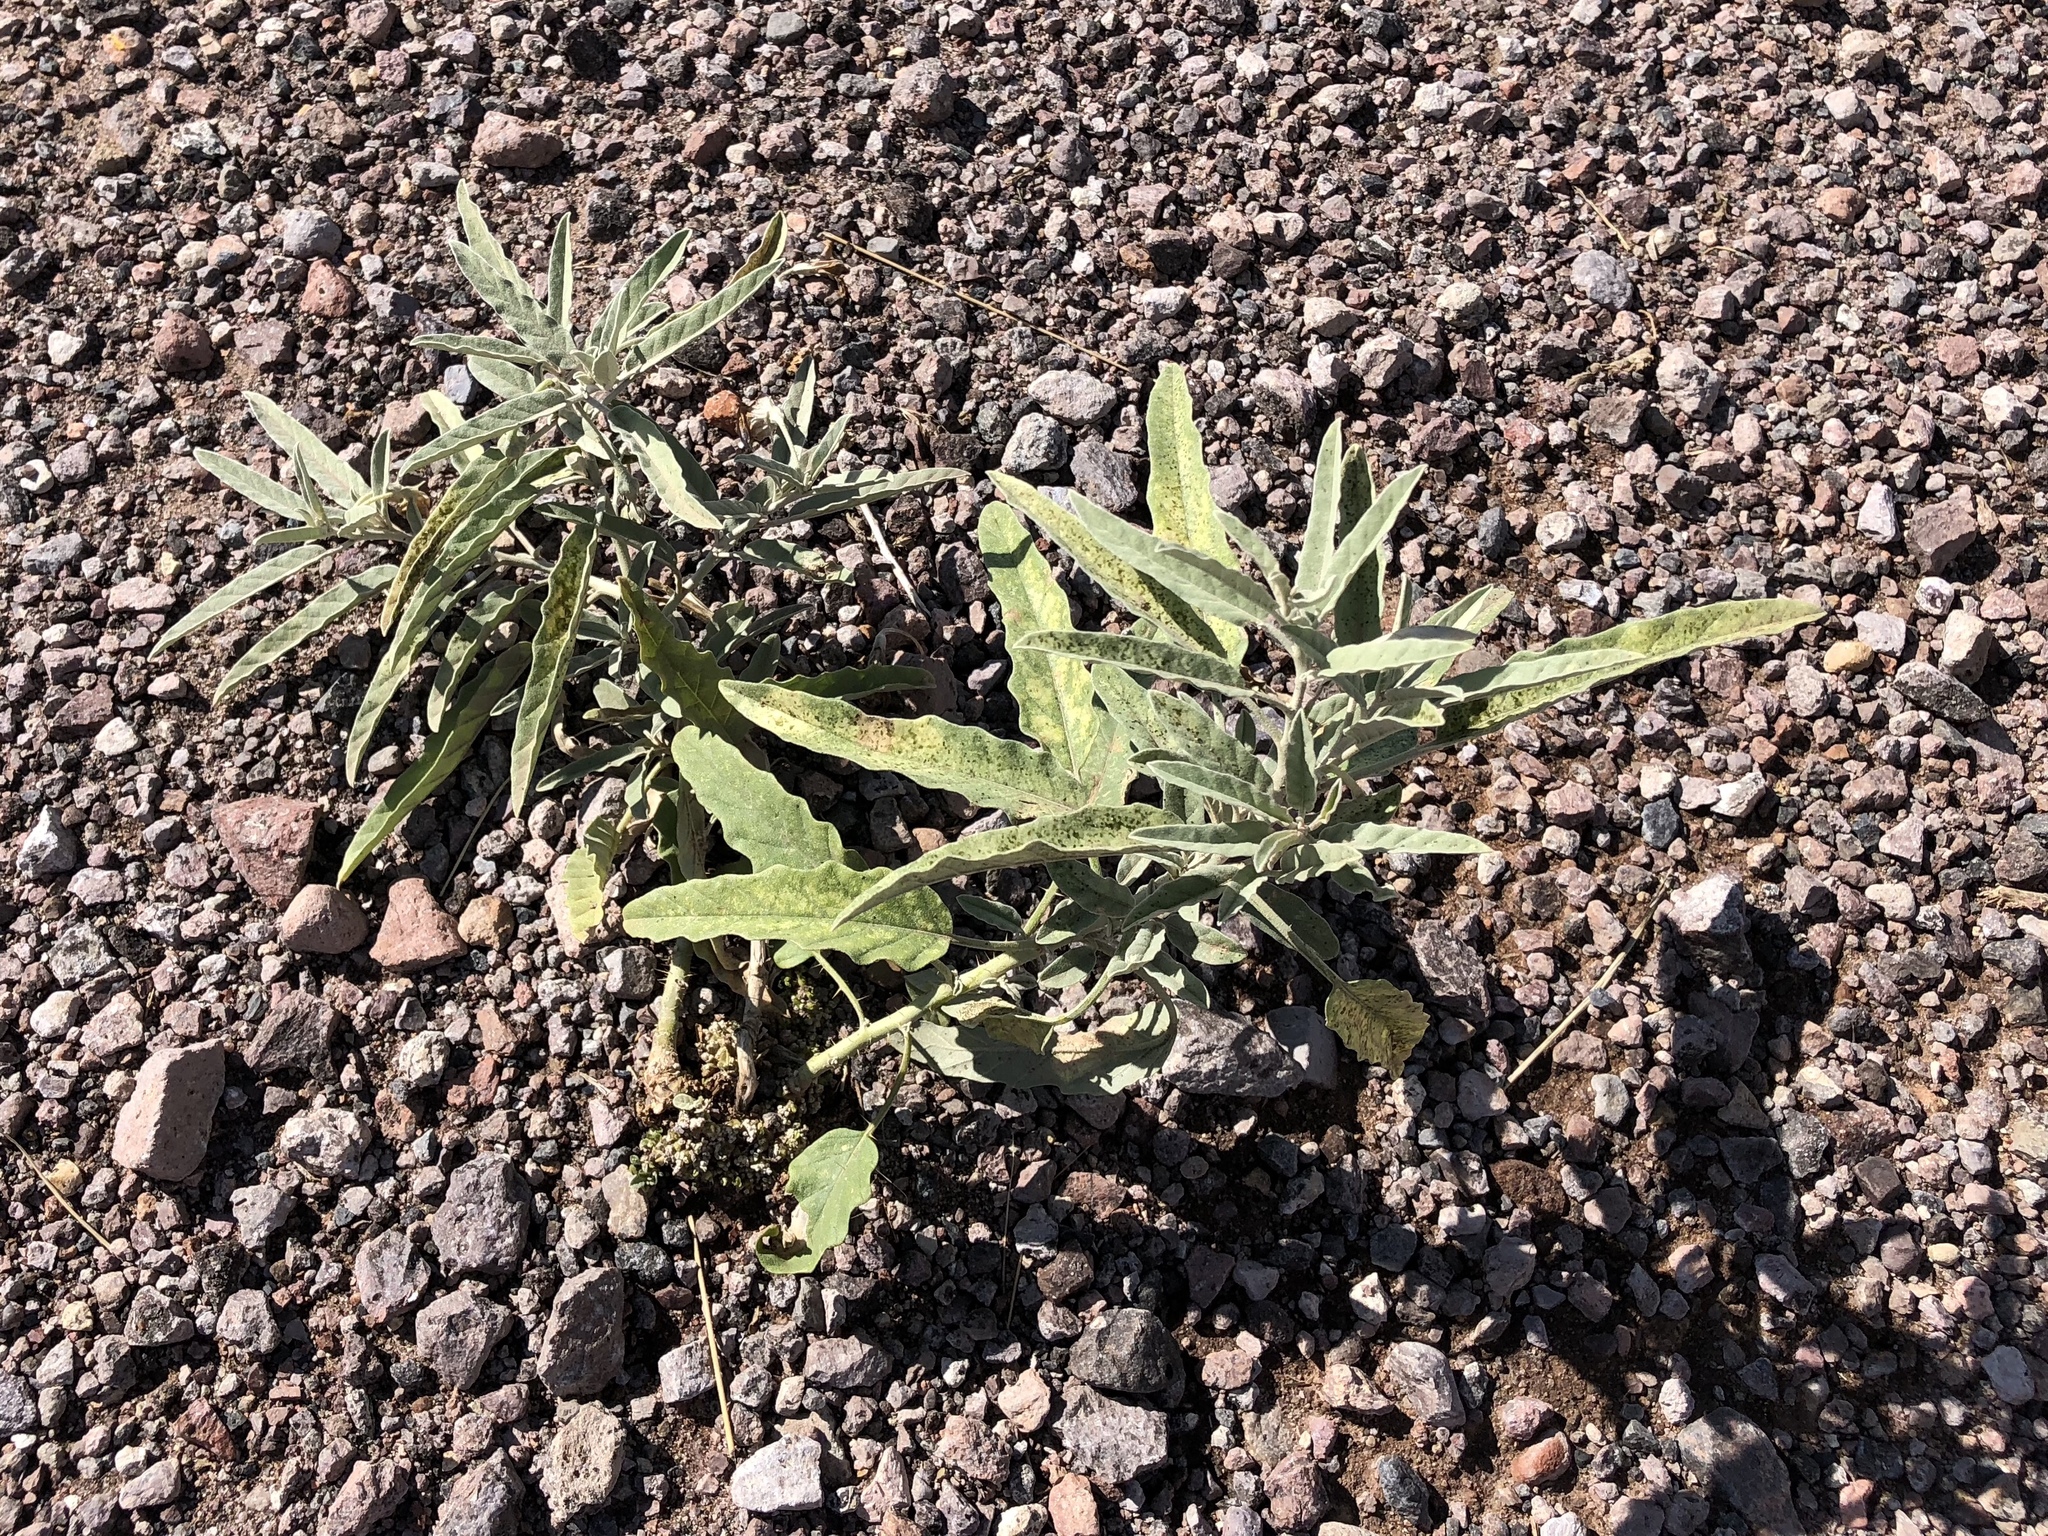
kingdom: Plantae
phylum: Tracheophyta
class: Magnoliopsida
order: Solanales
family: Solanaceae
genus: Solanum
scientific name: Solanum elaeagnifolium
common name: Silverleaf nightshade
